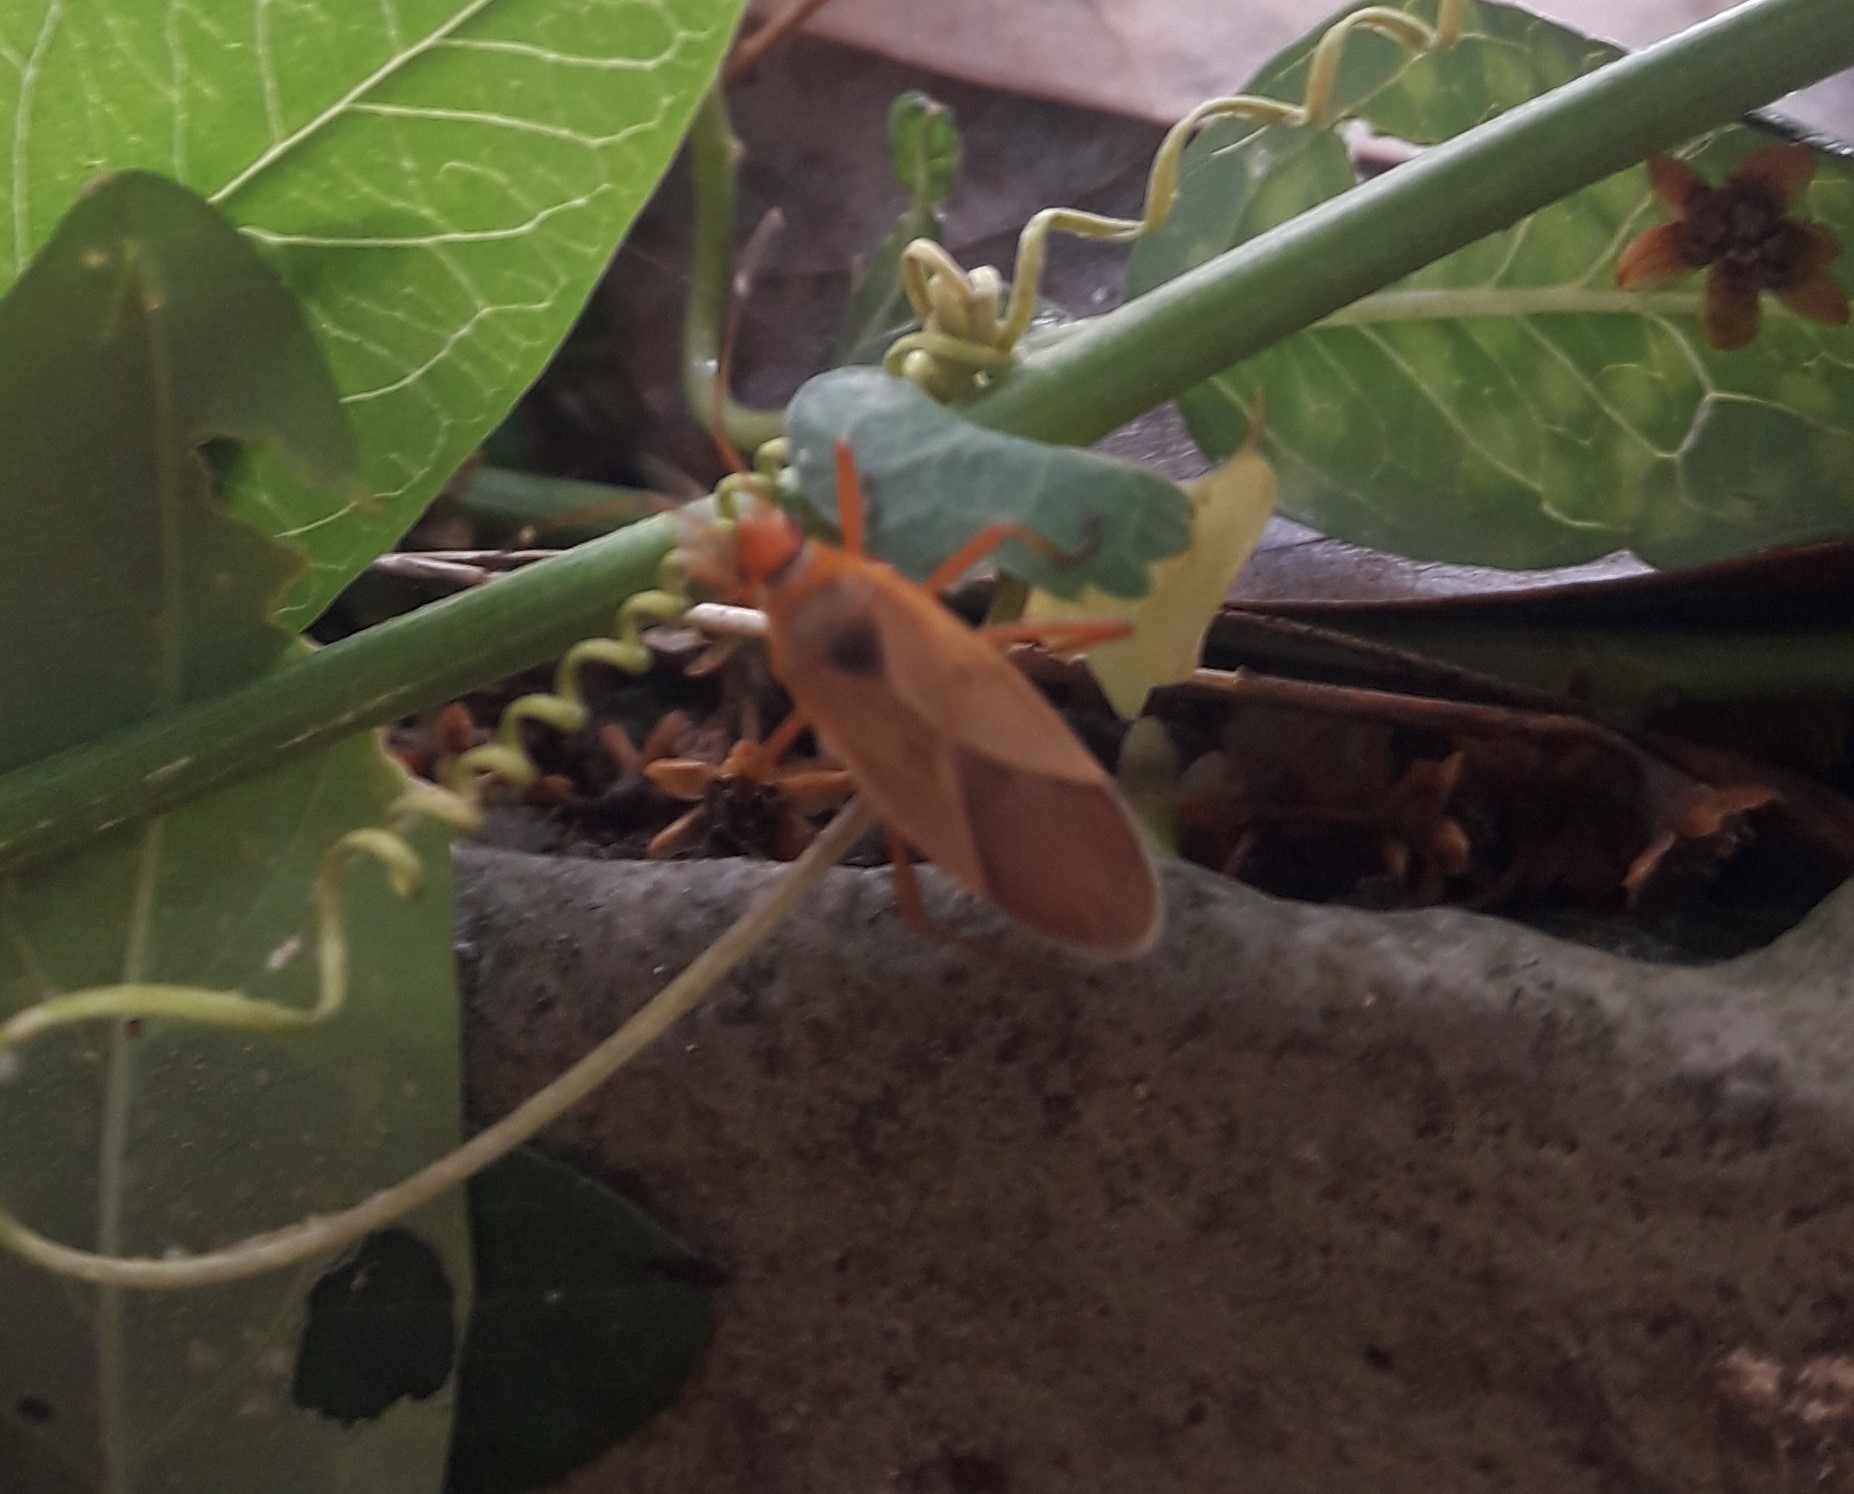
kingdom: Animalia
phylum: Arthropoda
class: Insecta
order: Hemiptera
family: Pyrrhocoridae
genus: Dysdercus
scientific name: Dysdercus
